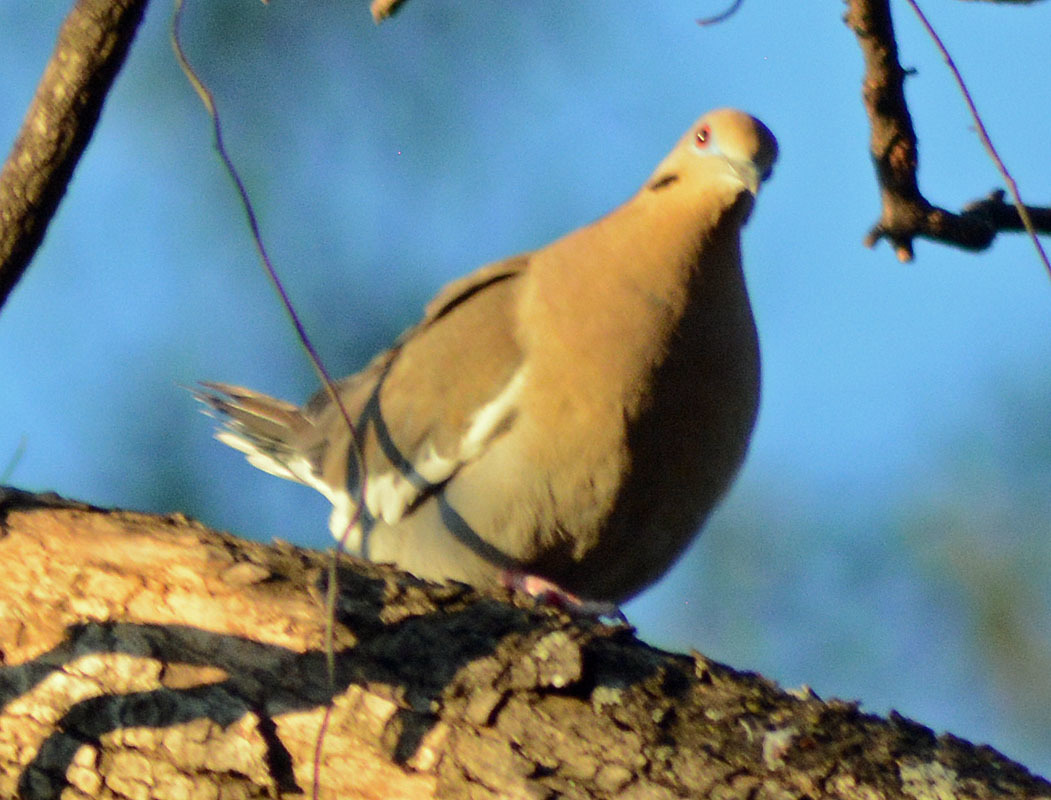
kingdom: Animalia
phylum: Chordata
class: Aves
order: Columbiformes
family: Columbidae
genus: Zenaida
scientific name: Zenaida asiatica
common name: White-winged dove
